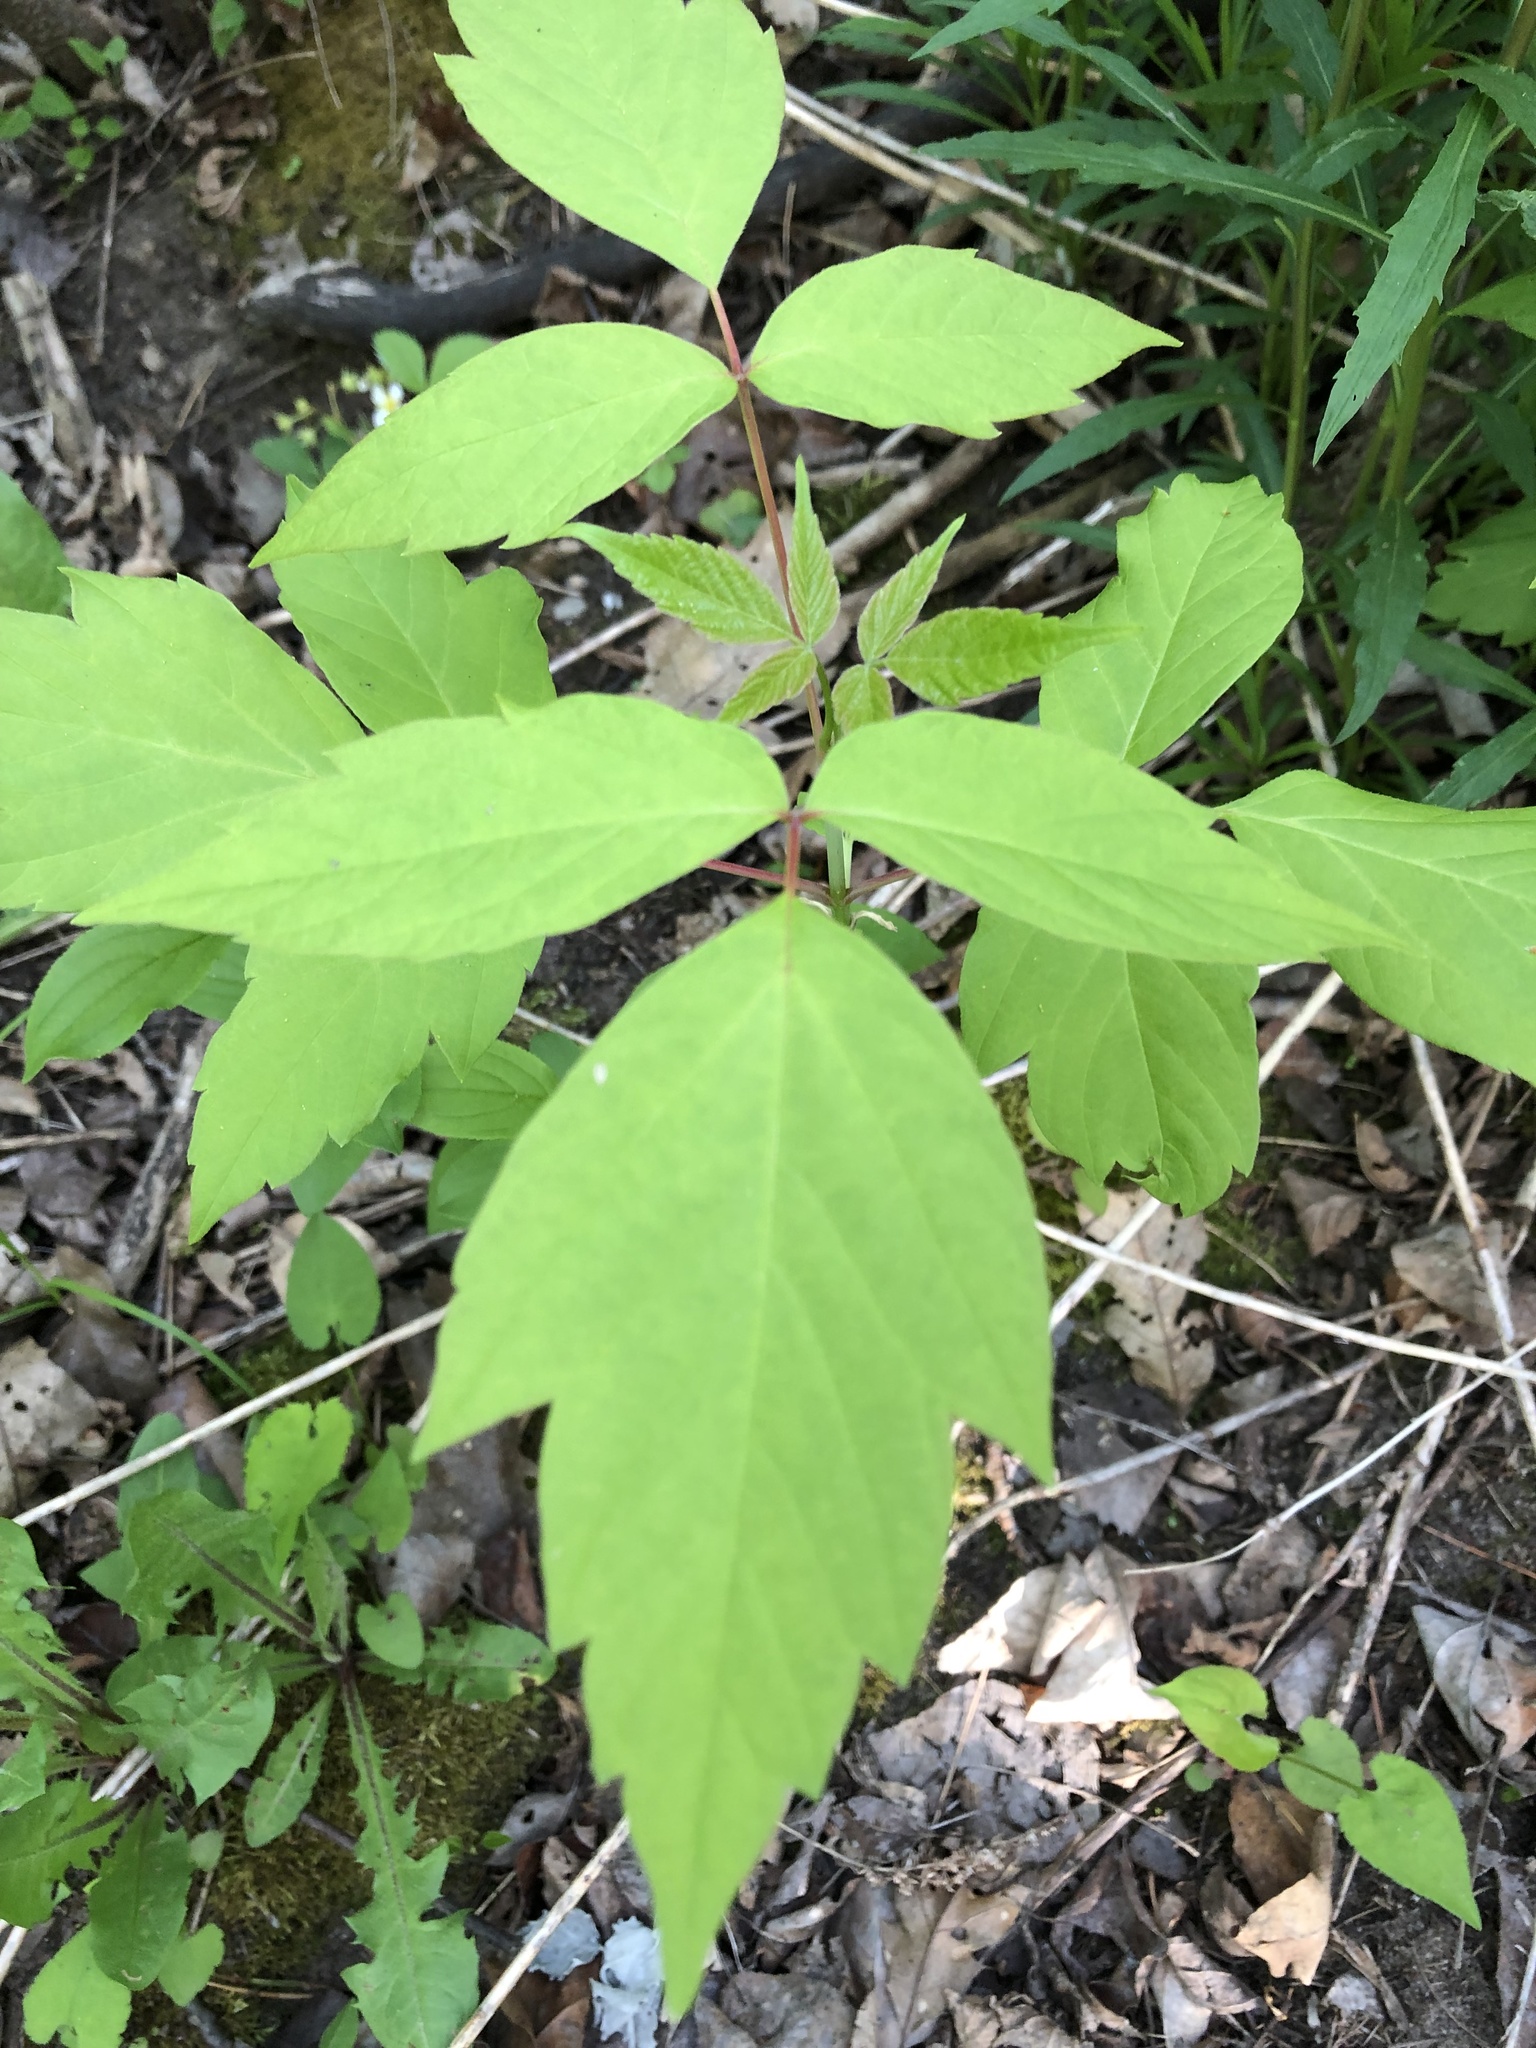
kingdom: Plantae
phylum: Tracheophyta
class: Magnoliopsida
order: Sapindales
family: Sapindaceae
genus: Acer
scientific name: Acer negundo
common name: Ashleaf maple
